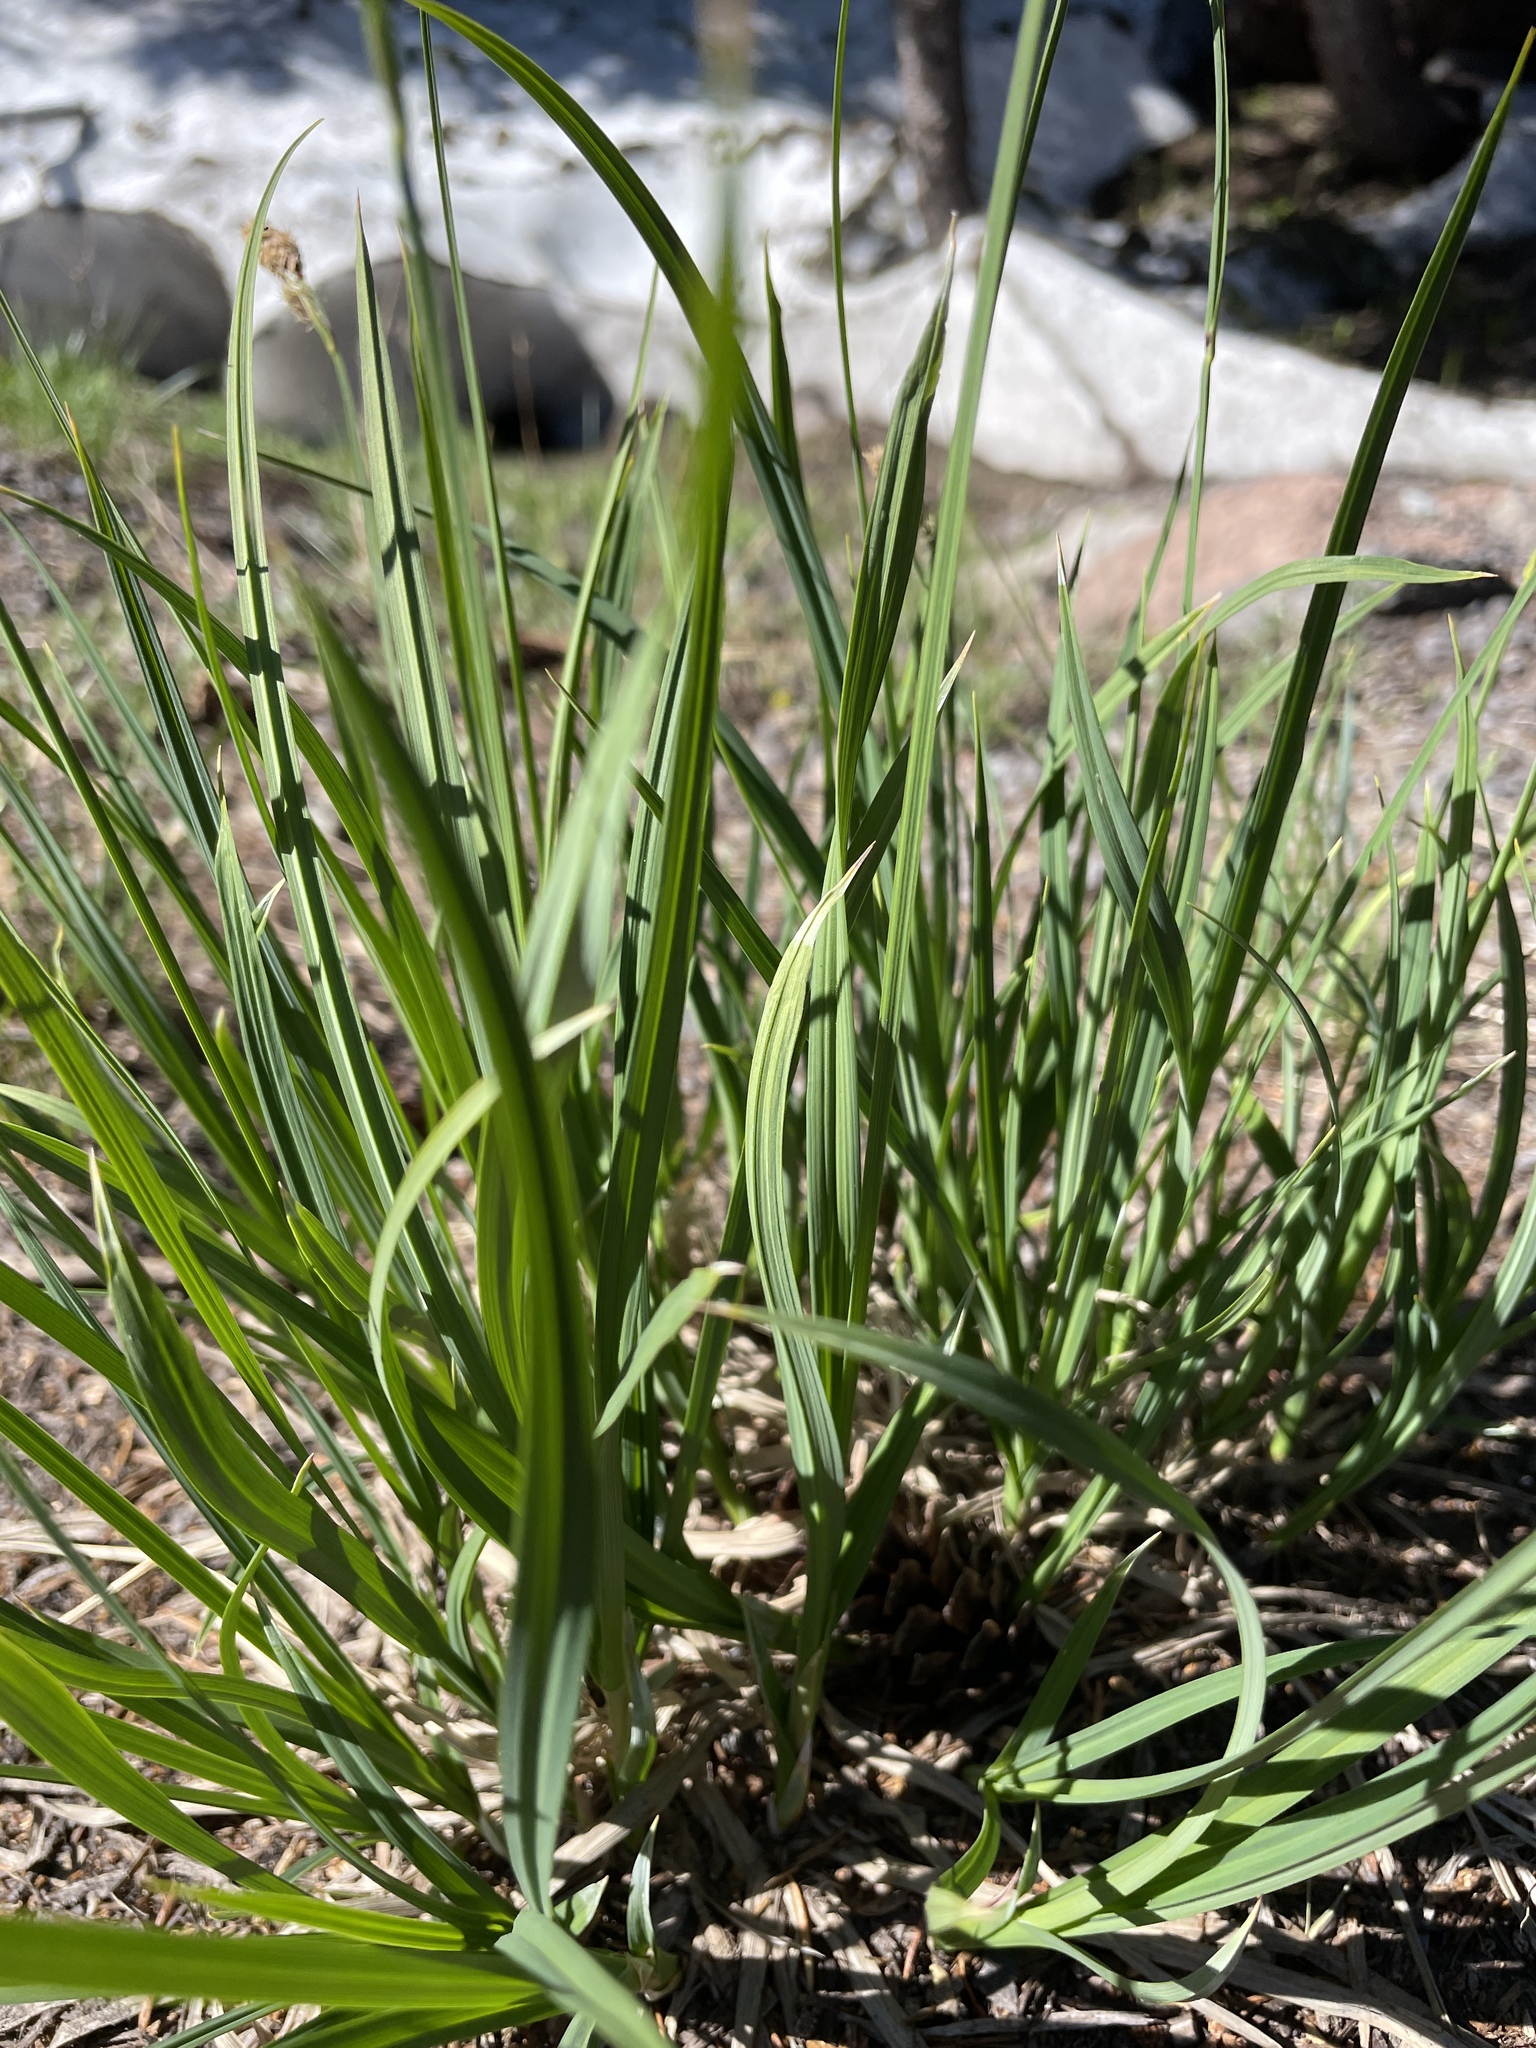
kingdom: Plantae
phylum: Tracheophyta
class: Magnoliopsida
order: Lamiales
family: Plantaginaceae
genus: Plantago
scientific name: Plantago lanceolata
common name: Ribwort plantain
